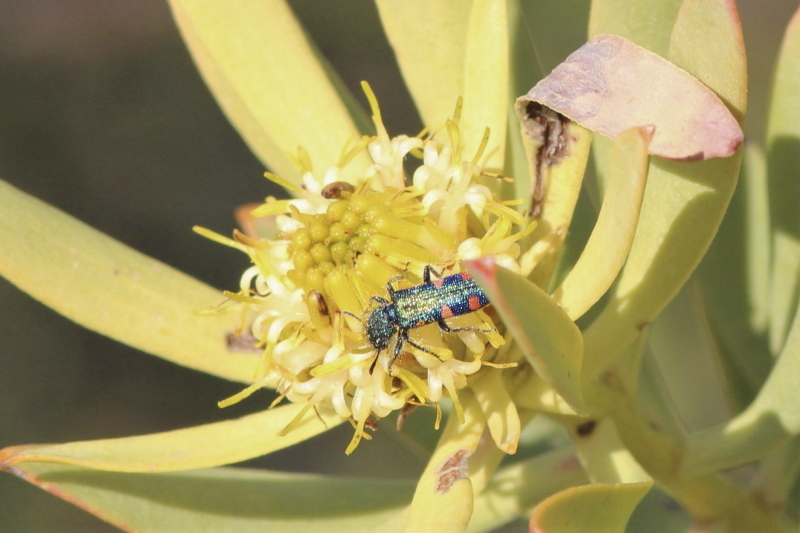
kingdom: Animalia
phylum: Arthropoda
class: Insecta
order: Coleoptera
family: Cleridae
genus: Trichodes
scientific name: Trichodes aulicus
